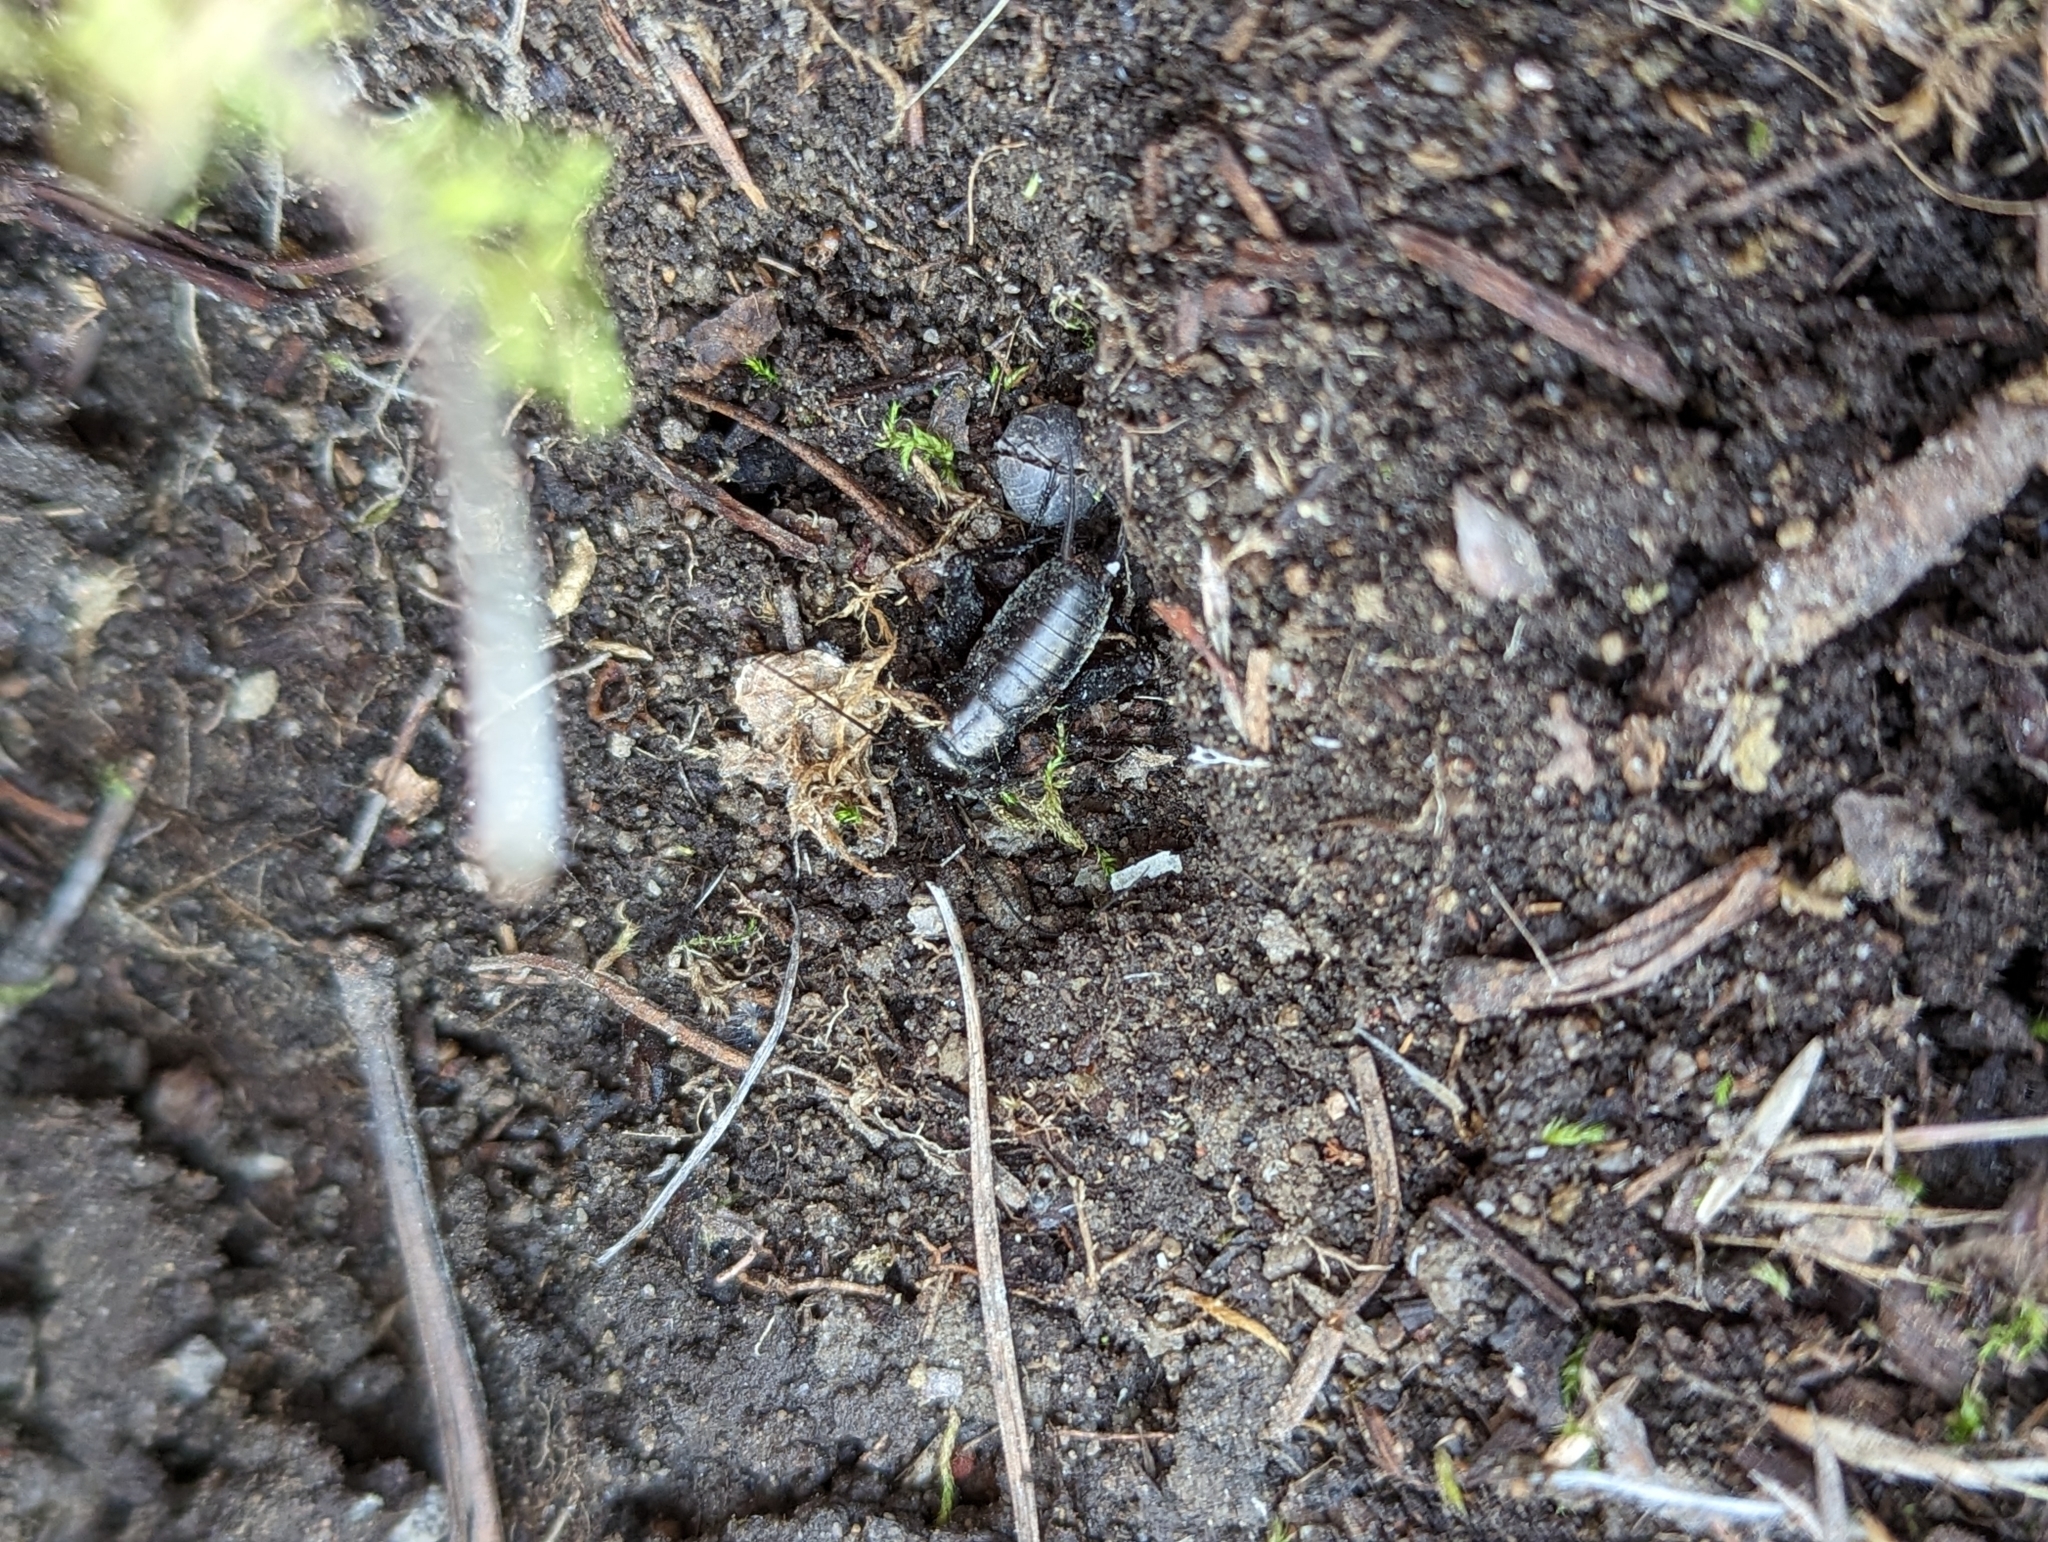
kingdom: Animalia
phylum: Arthropoda
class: Insecta
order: Orthoptera
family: Gryllidae
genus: Gryllus
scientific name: Gryllus veletis
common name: Spring field cricket
